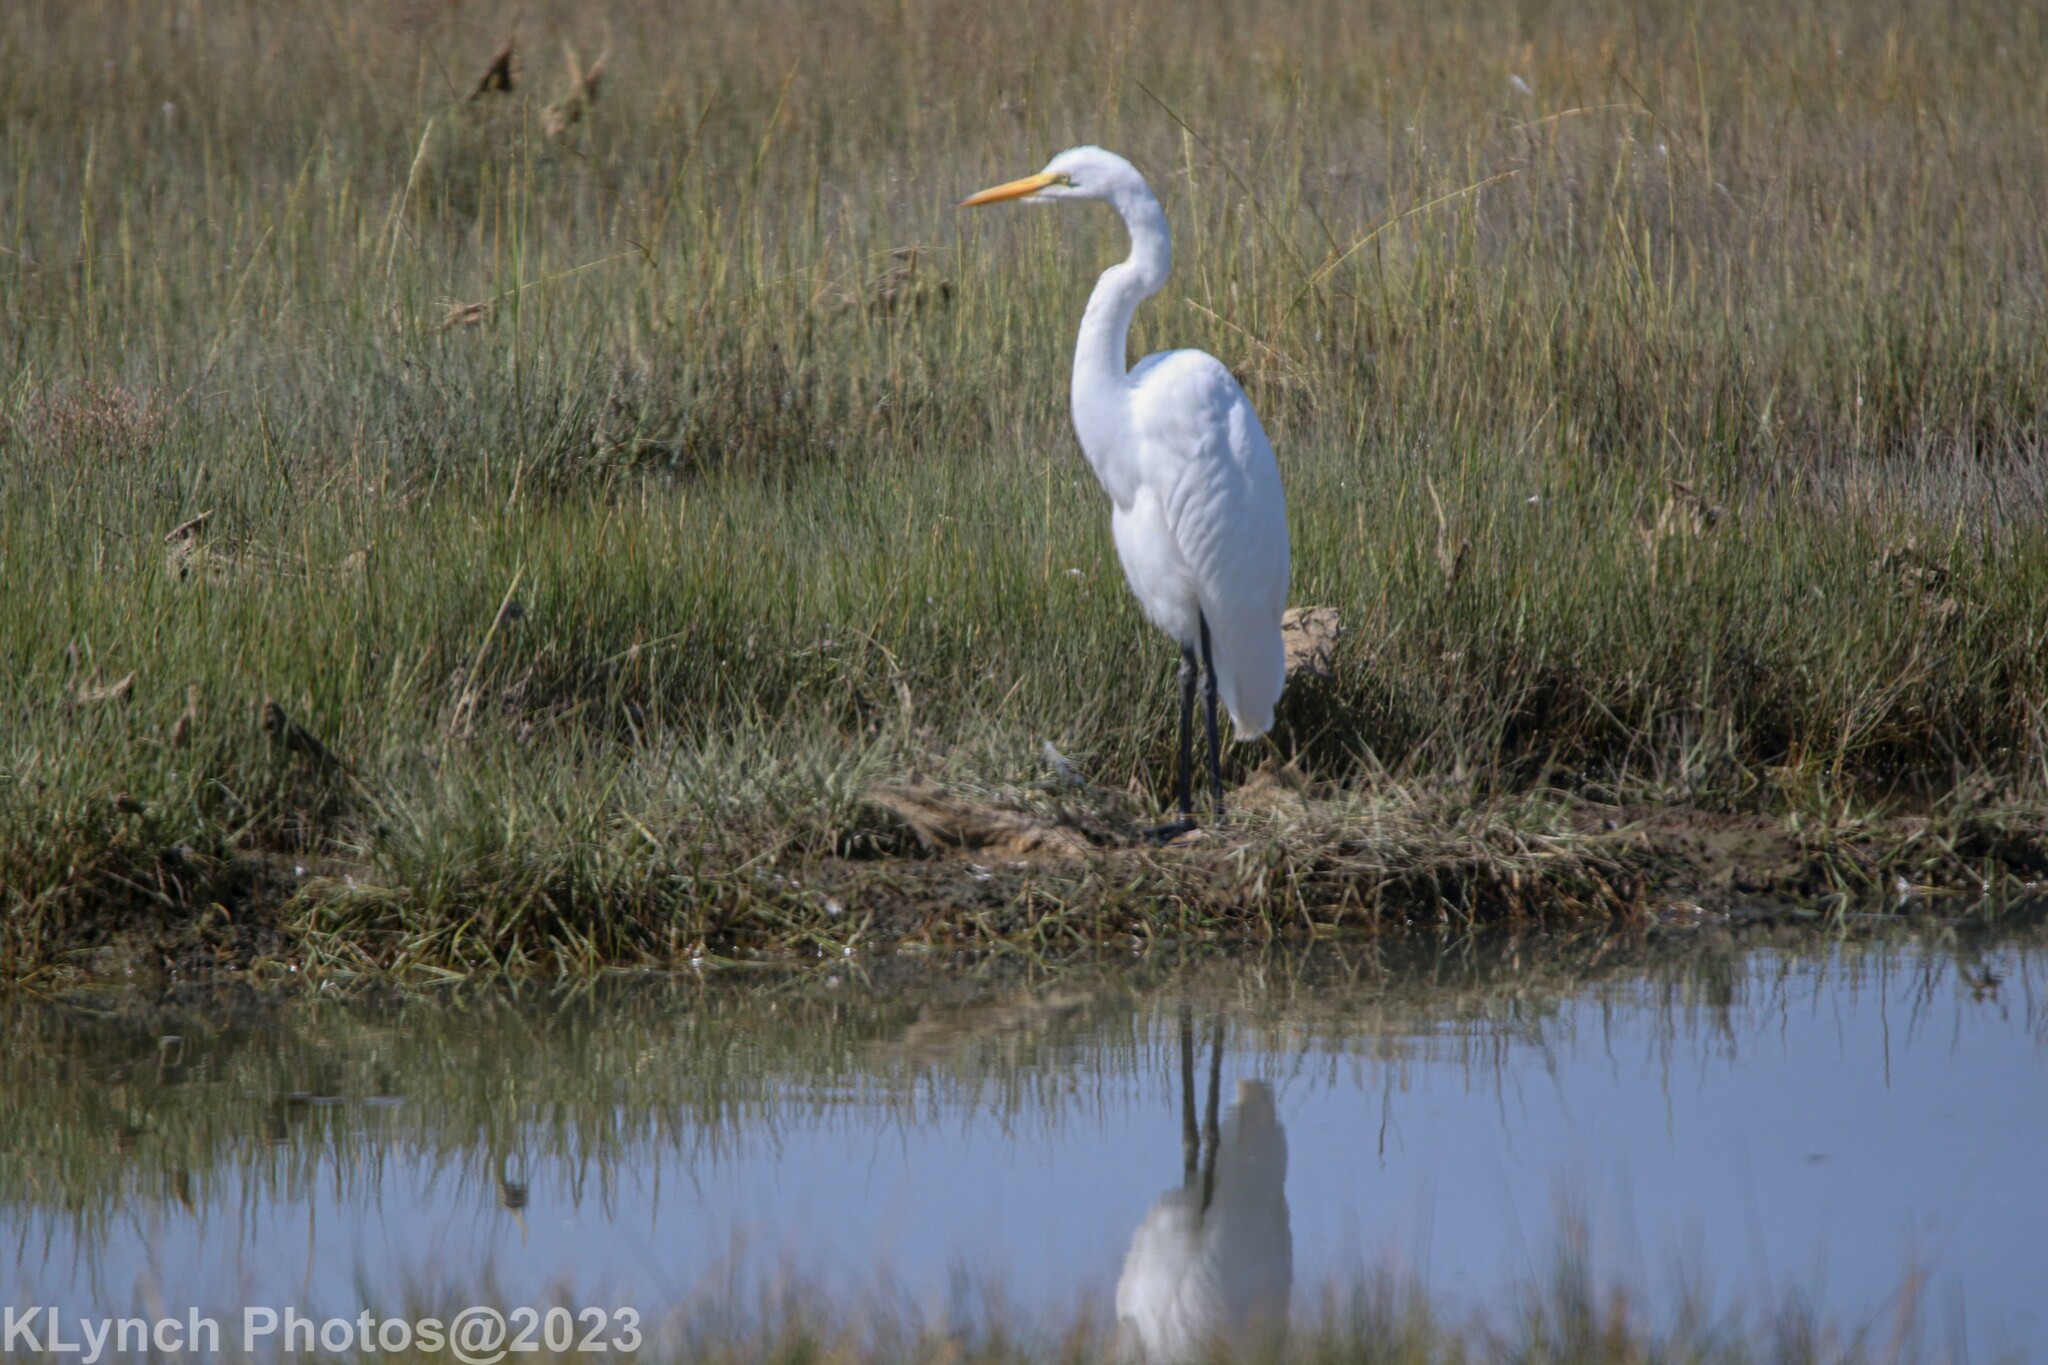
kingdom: Animalia
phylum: Chordata
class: Aves
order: Pelecaniformes
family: Ardeidae
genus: Ardea
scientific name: Ardea alba
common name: Great egret
